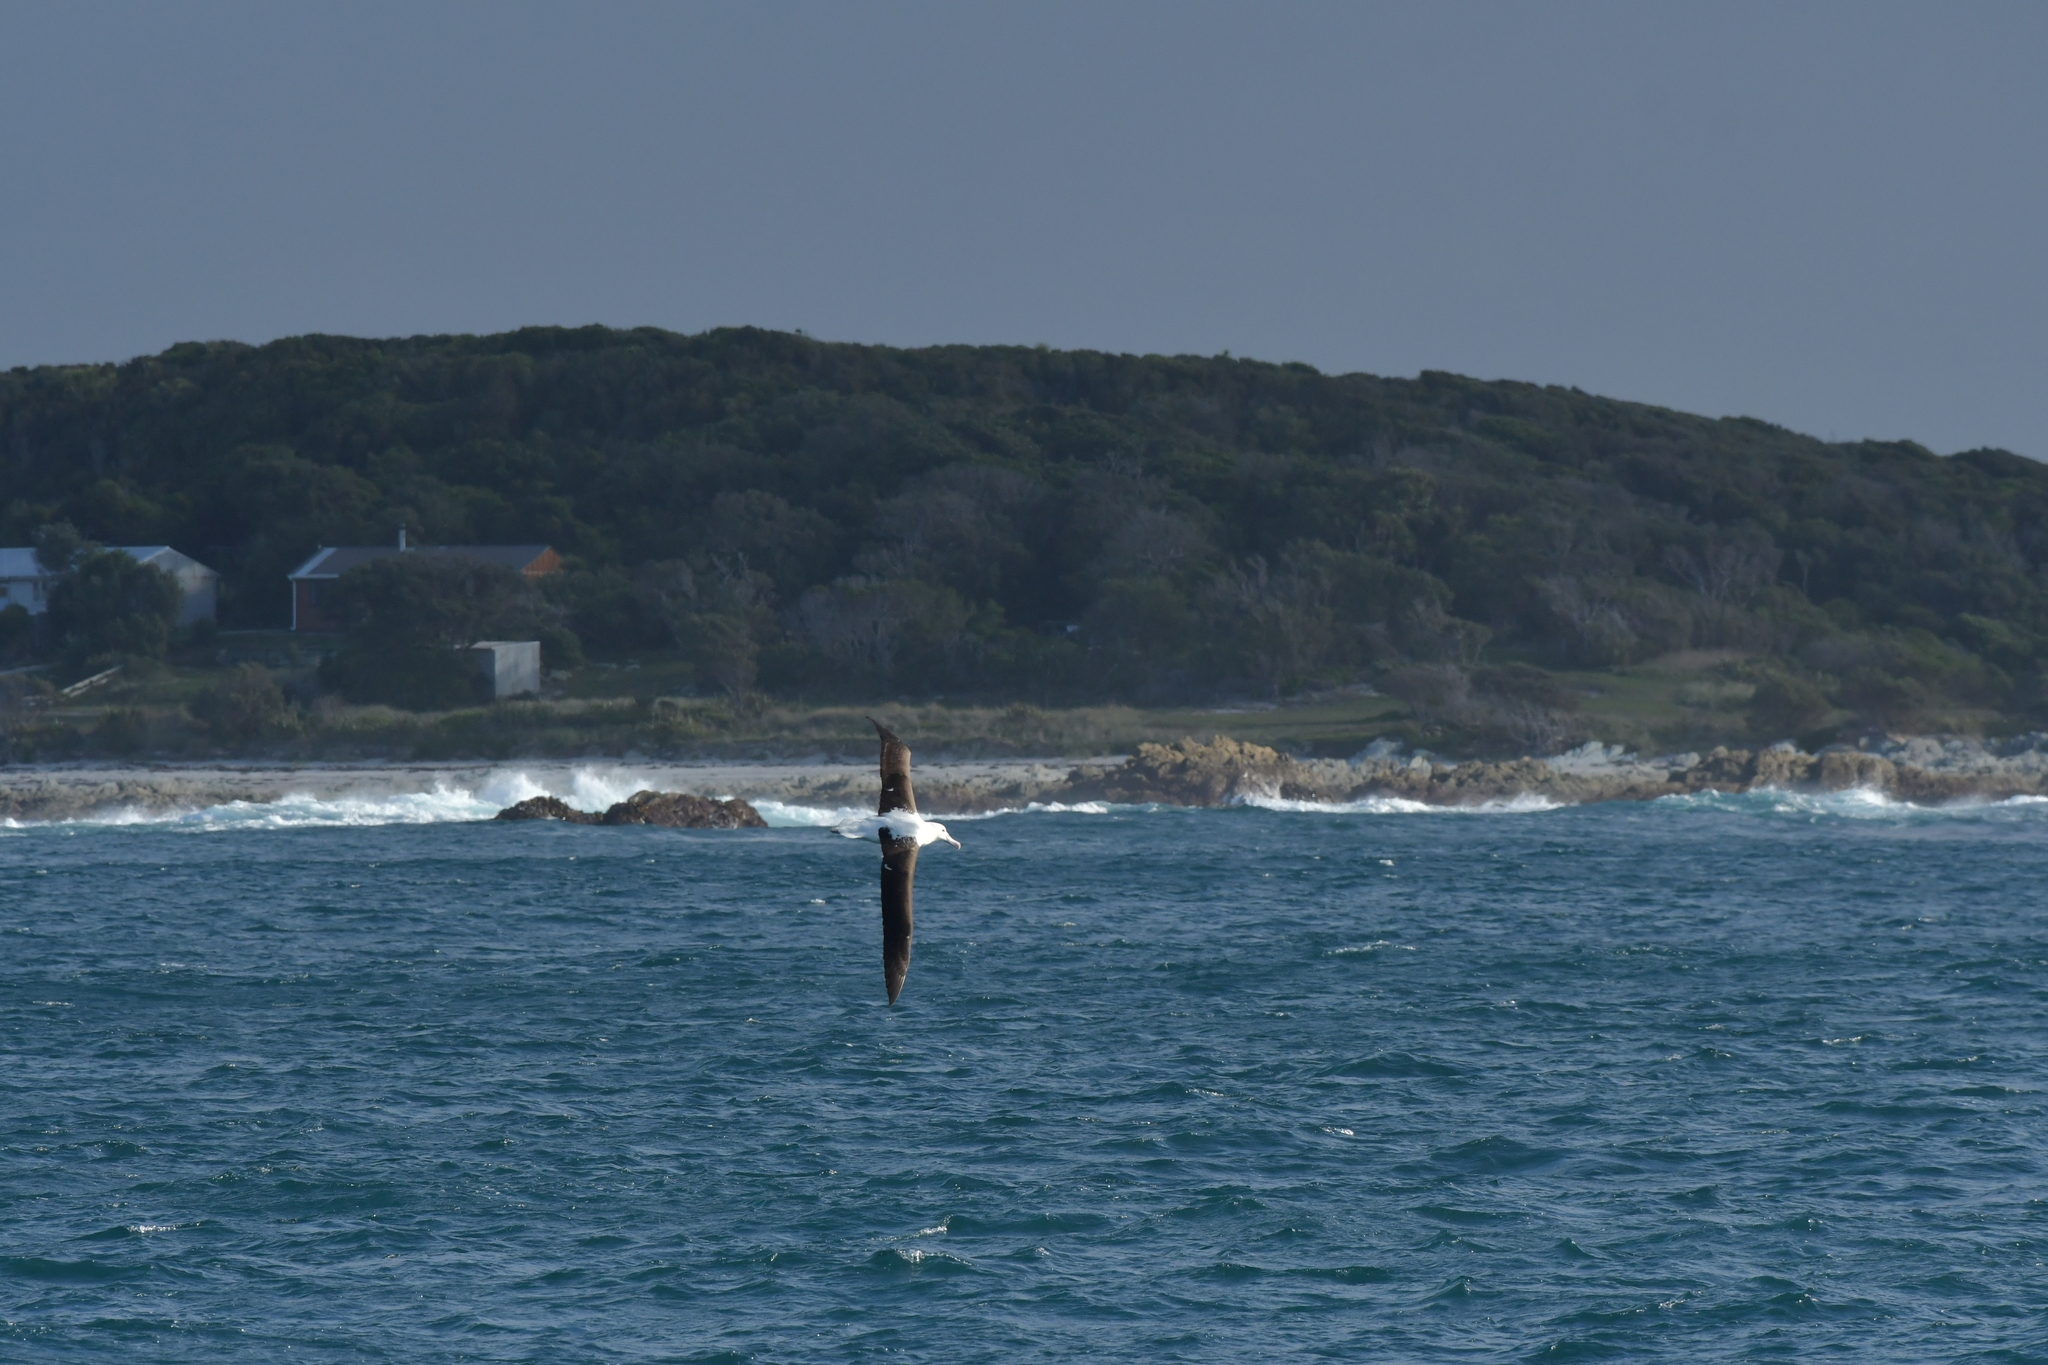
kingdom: Animalia
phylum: Chordata
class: Aves
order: Procellariiformes
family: Diomedeidae
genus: Diomedea
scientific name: Diomedea sanfordi
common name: Northern royal albatross
